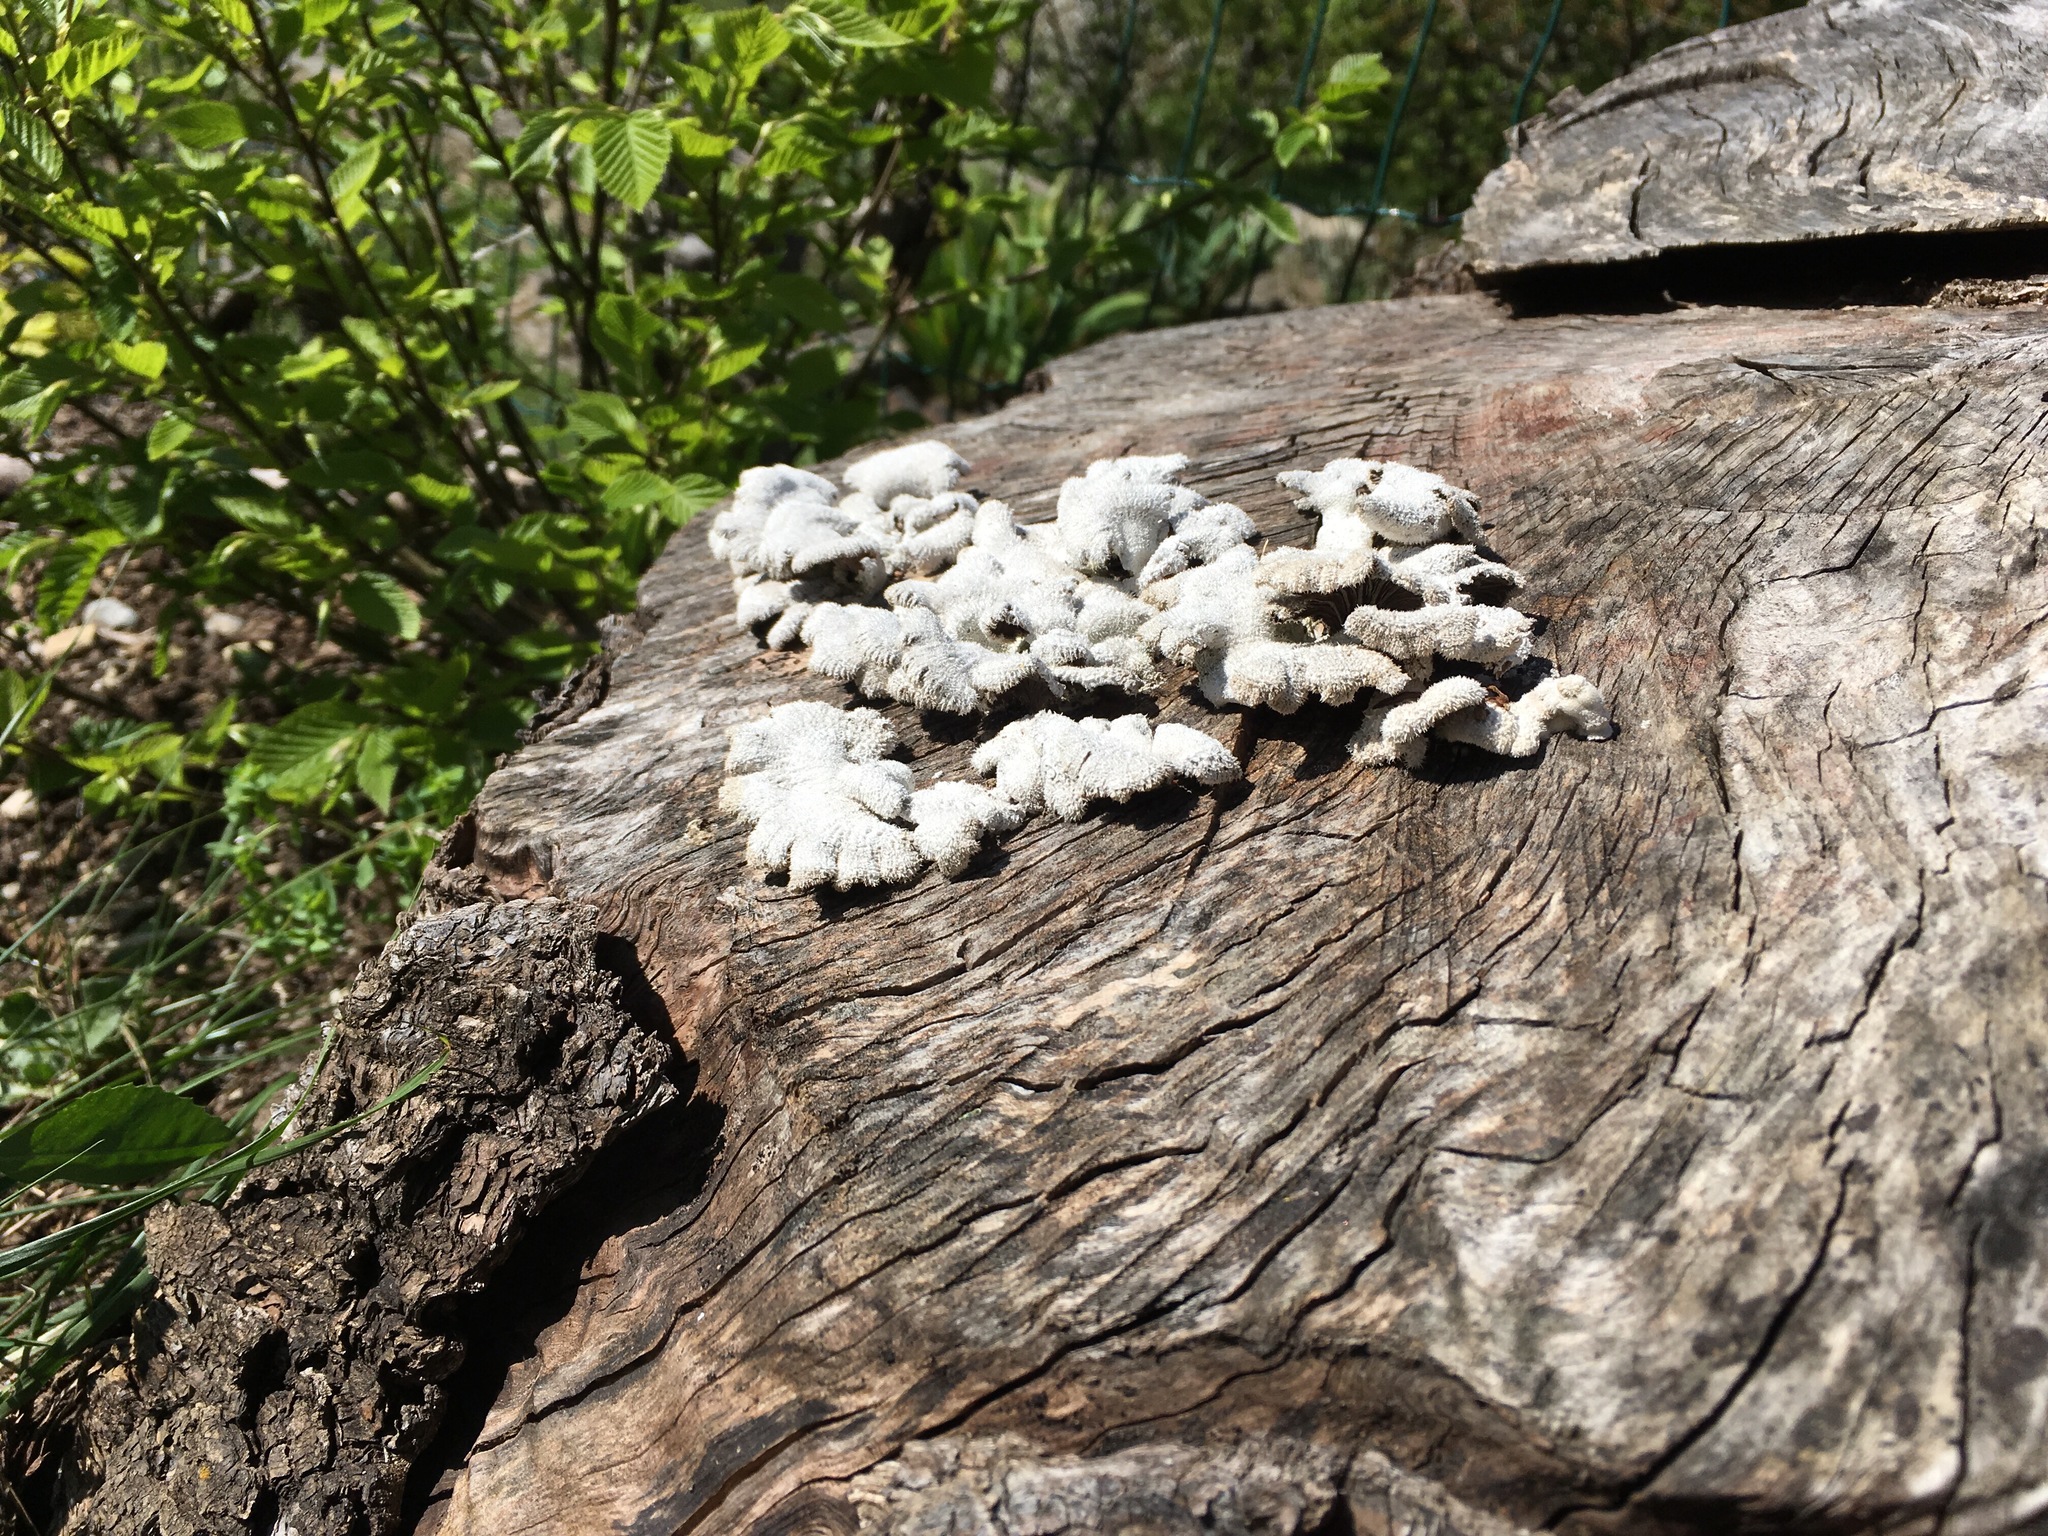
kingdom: Fungi
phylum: Basidiomycota
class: Agaricomycetes
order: Agaricales
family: Schizophyllaceae
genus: Schizophyllum
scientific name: Schizophyllum commune
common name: Common porecrust
